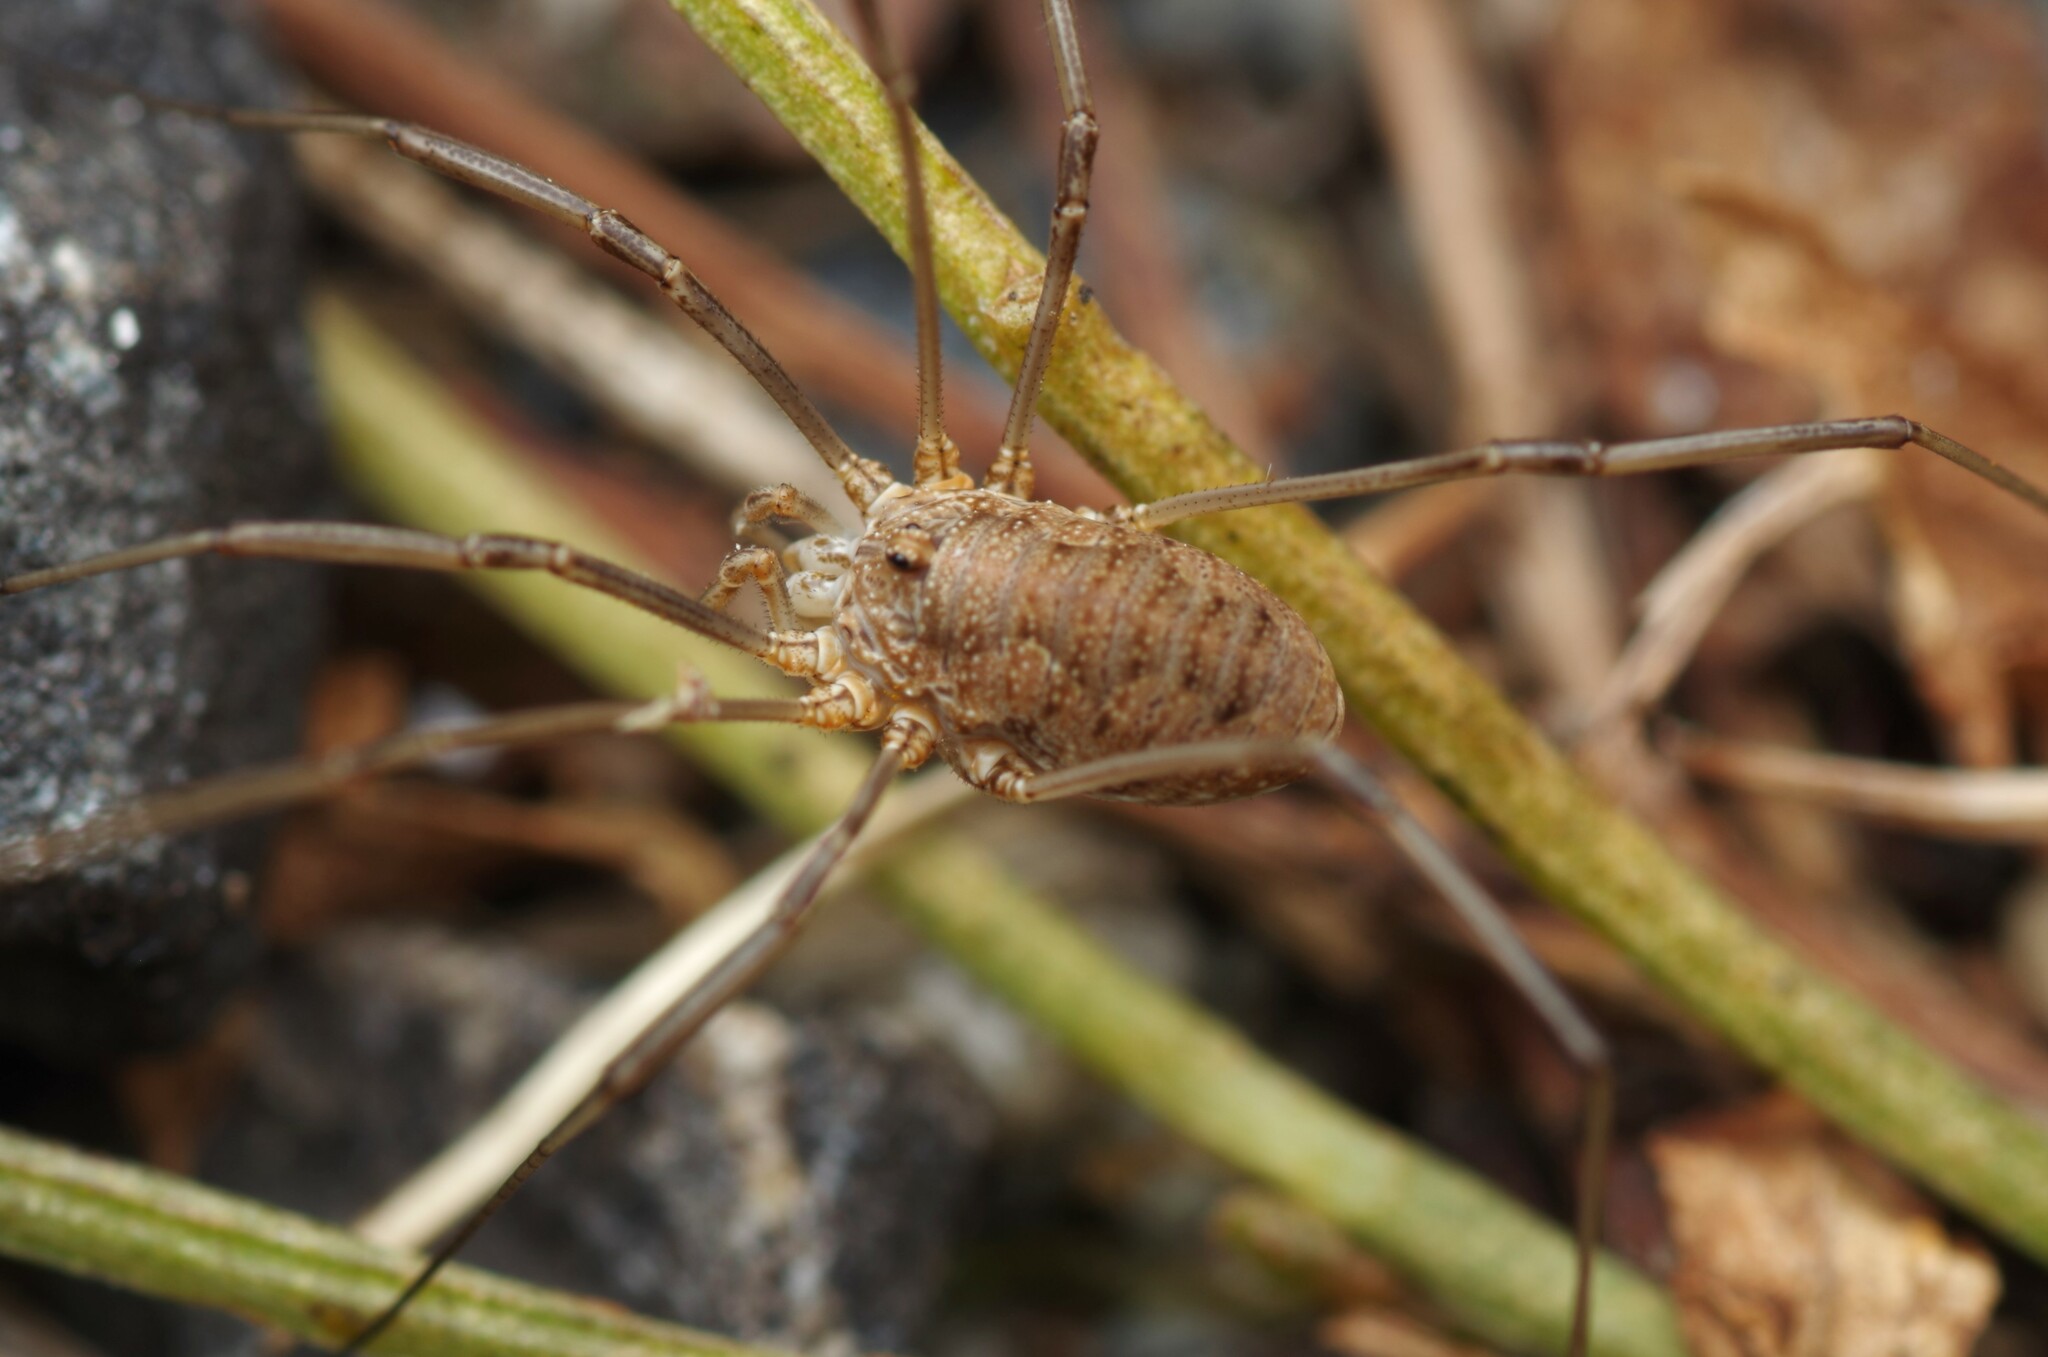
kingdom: Animalia
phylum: Arthropoda
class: Arachnida
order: Opiliones
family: Phalangiidae
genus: Phalangium
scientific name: Phalangium opilio
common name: Daddy longleg
